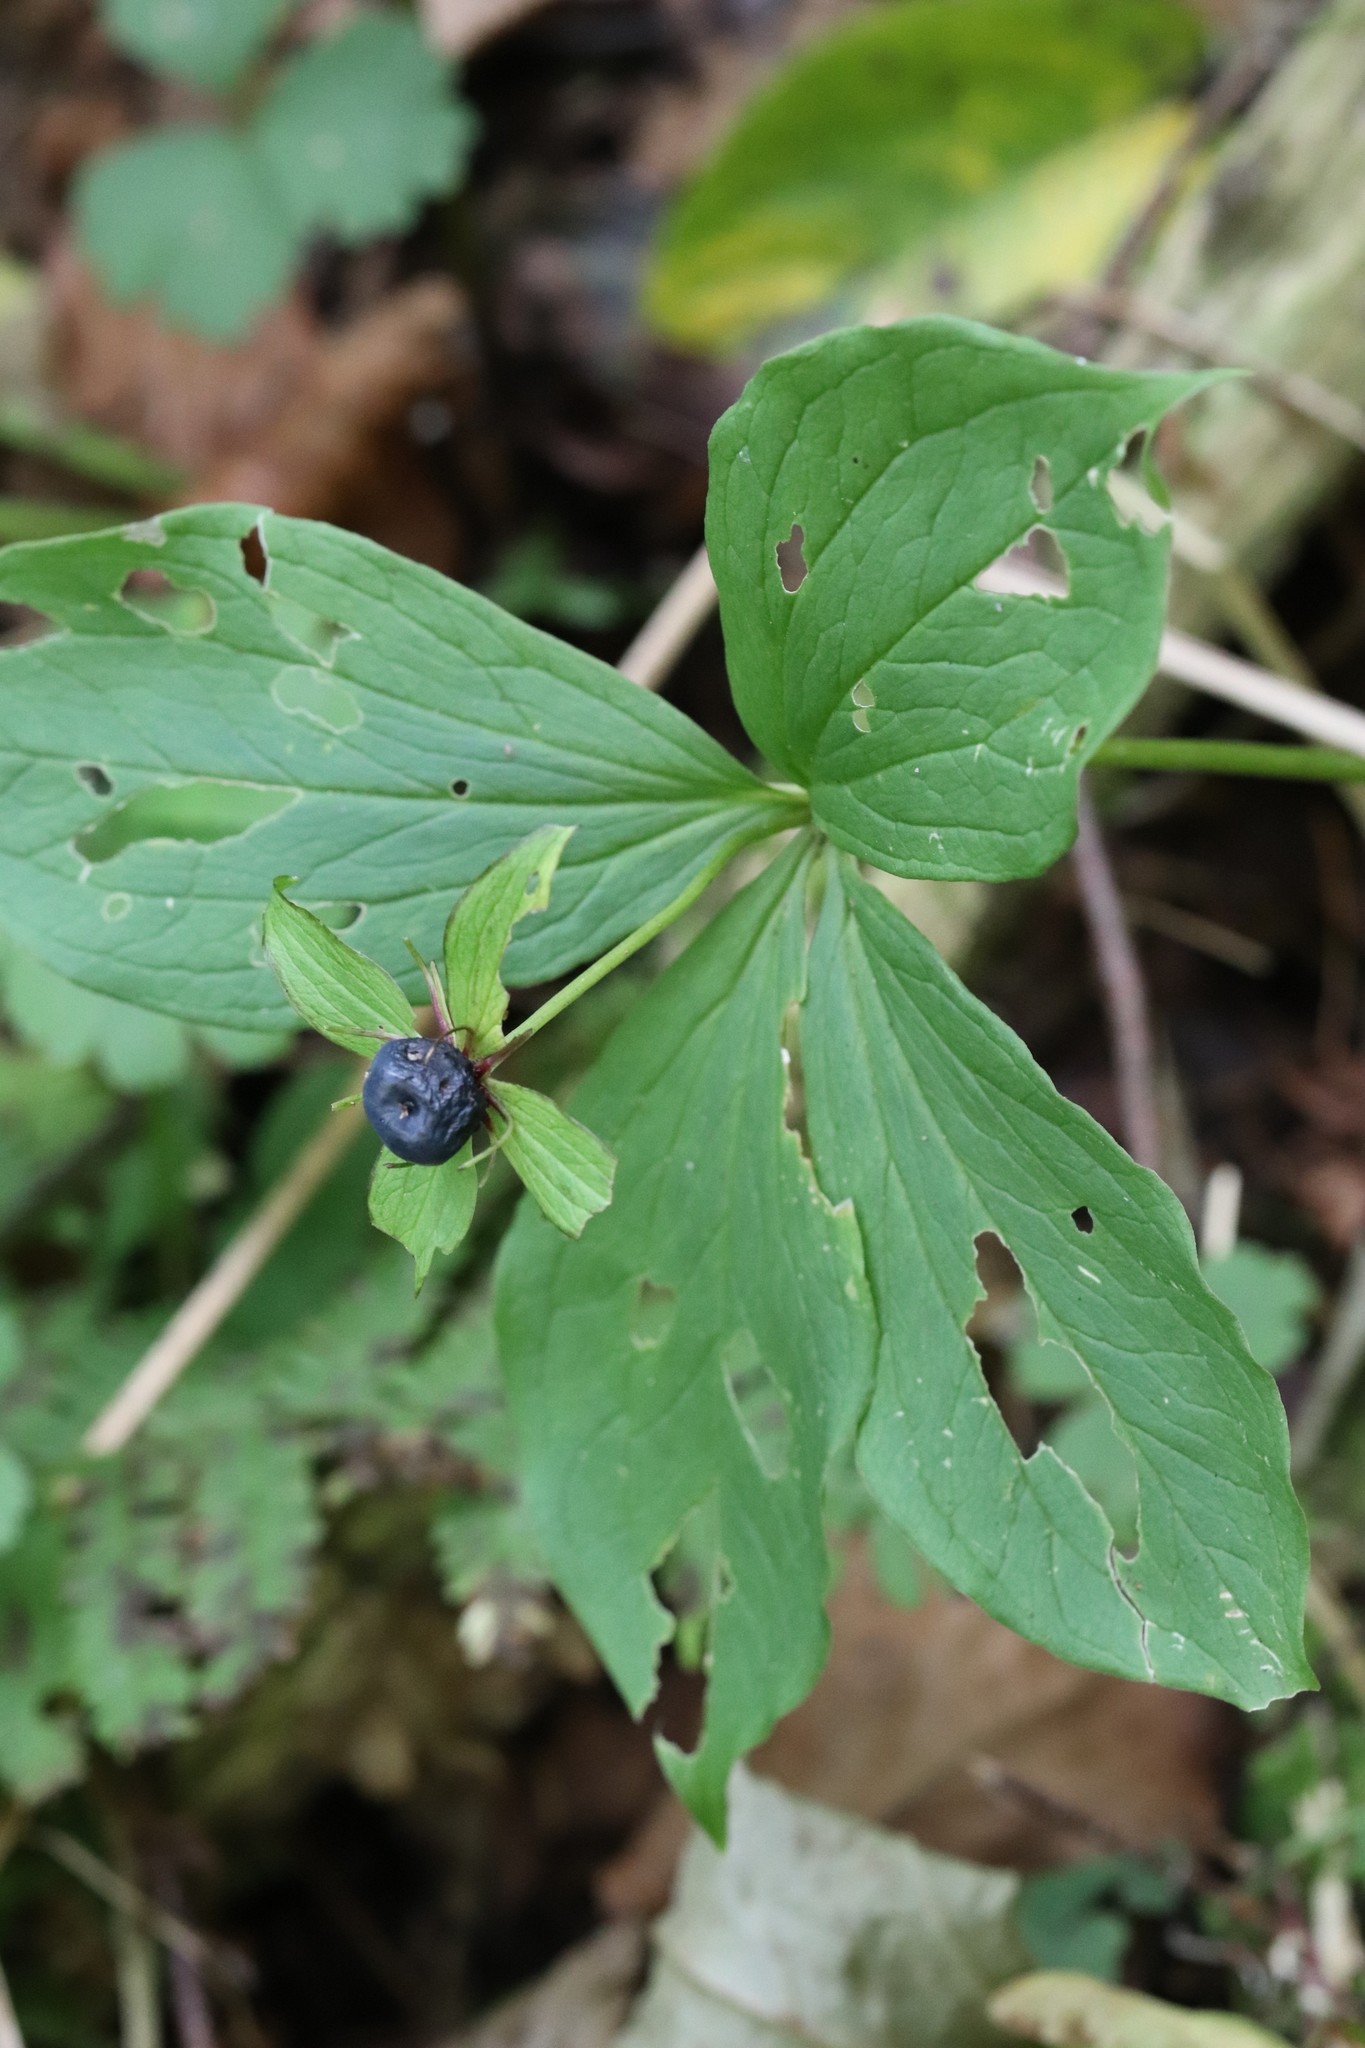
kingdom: Plantae
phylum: Tracheophyta
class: Liliopsida
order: Liliales
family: Melanthiaceae
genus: Paris
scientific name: Paris verticillata
